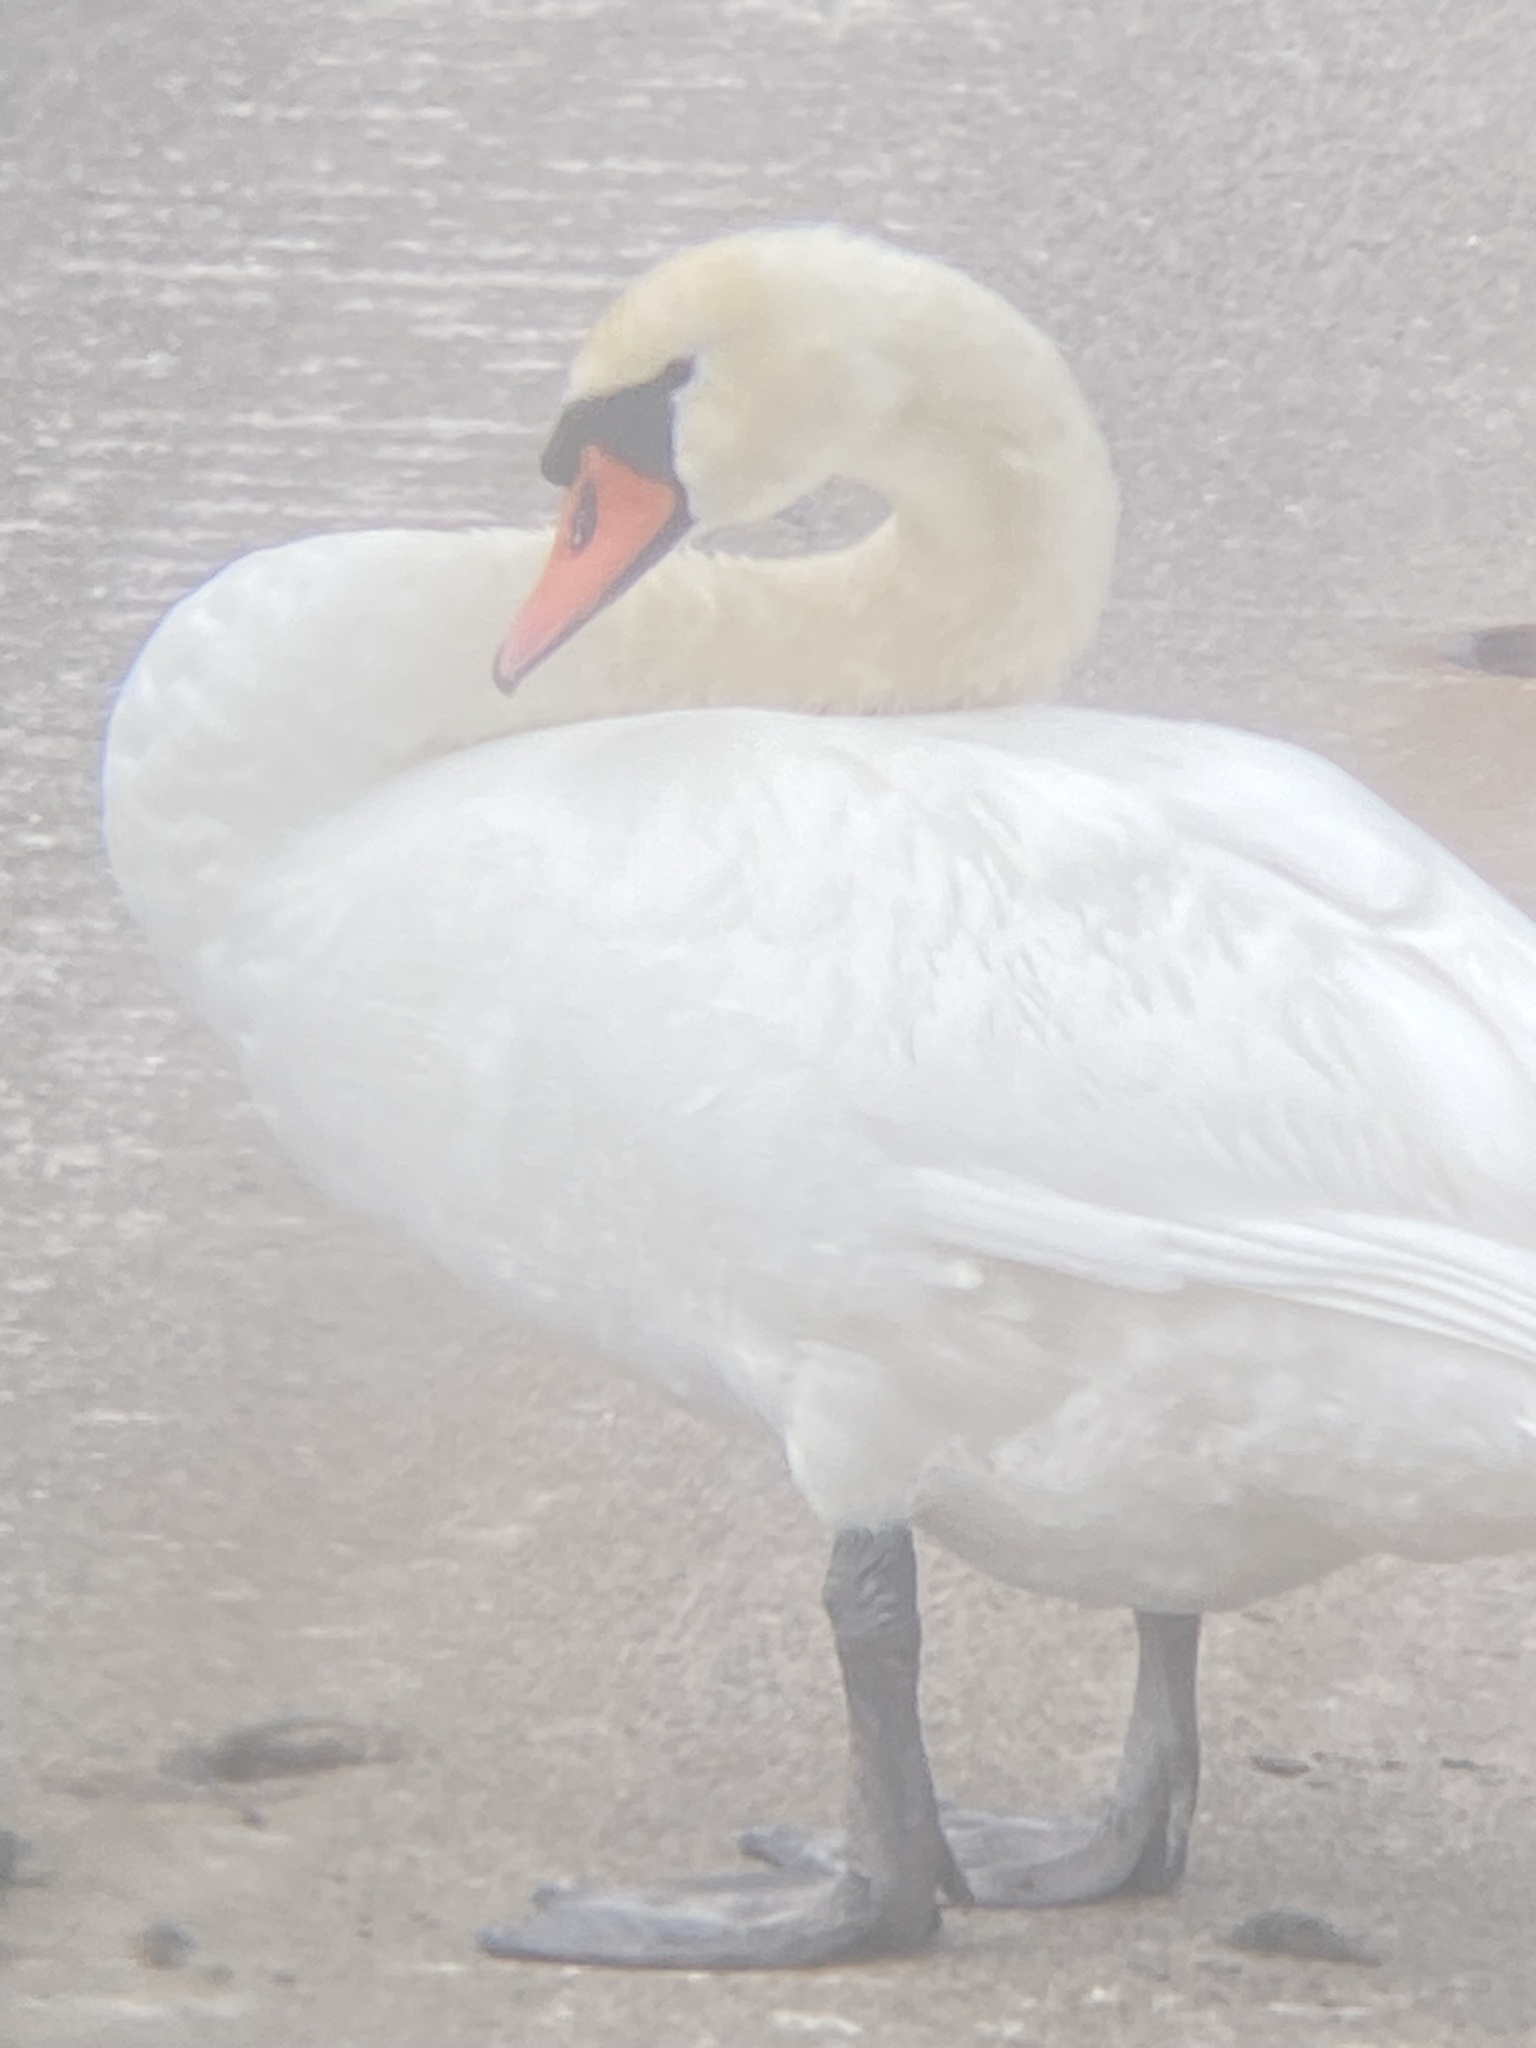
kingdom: Animalia
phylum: Chordata
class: Aves
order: Anseriformes
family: Anatidae
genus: Cygnus
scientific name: Cygnus olor
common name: Mute swan
